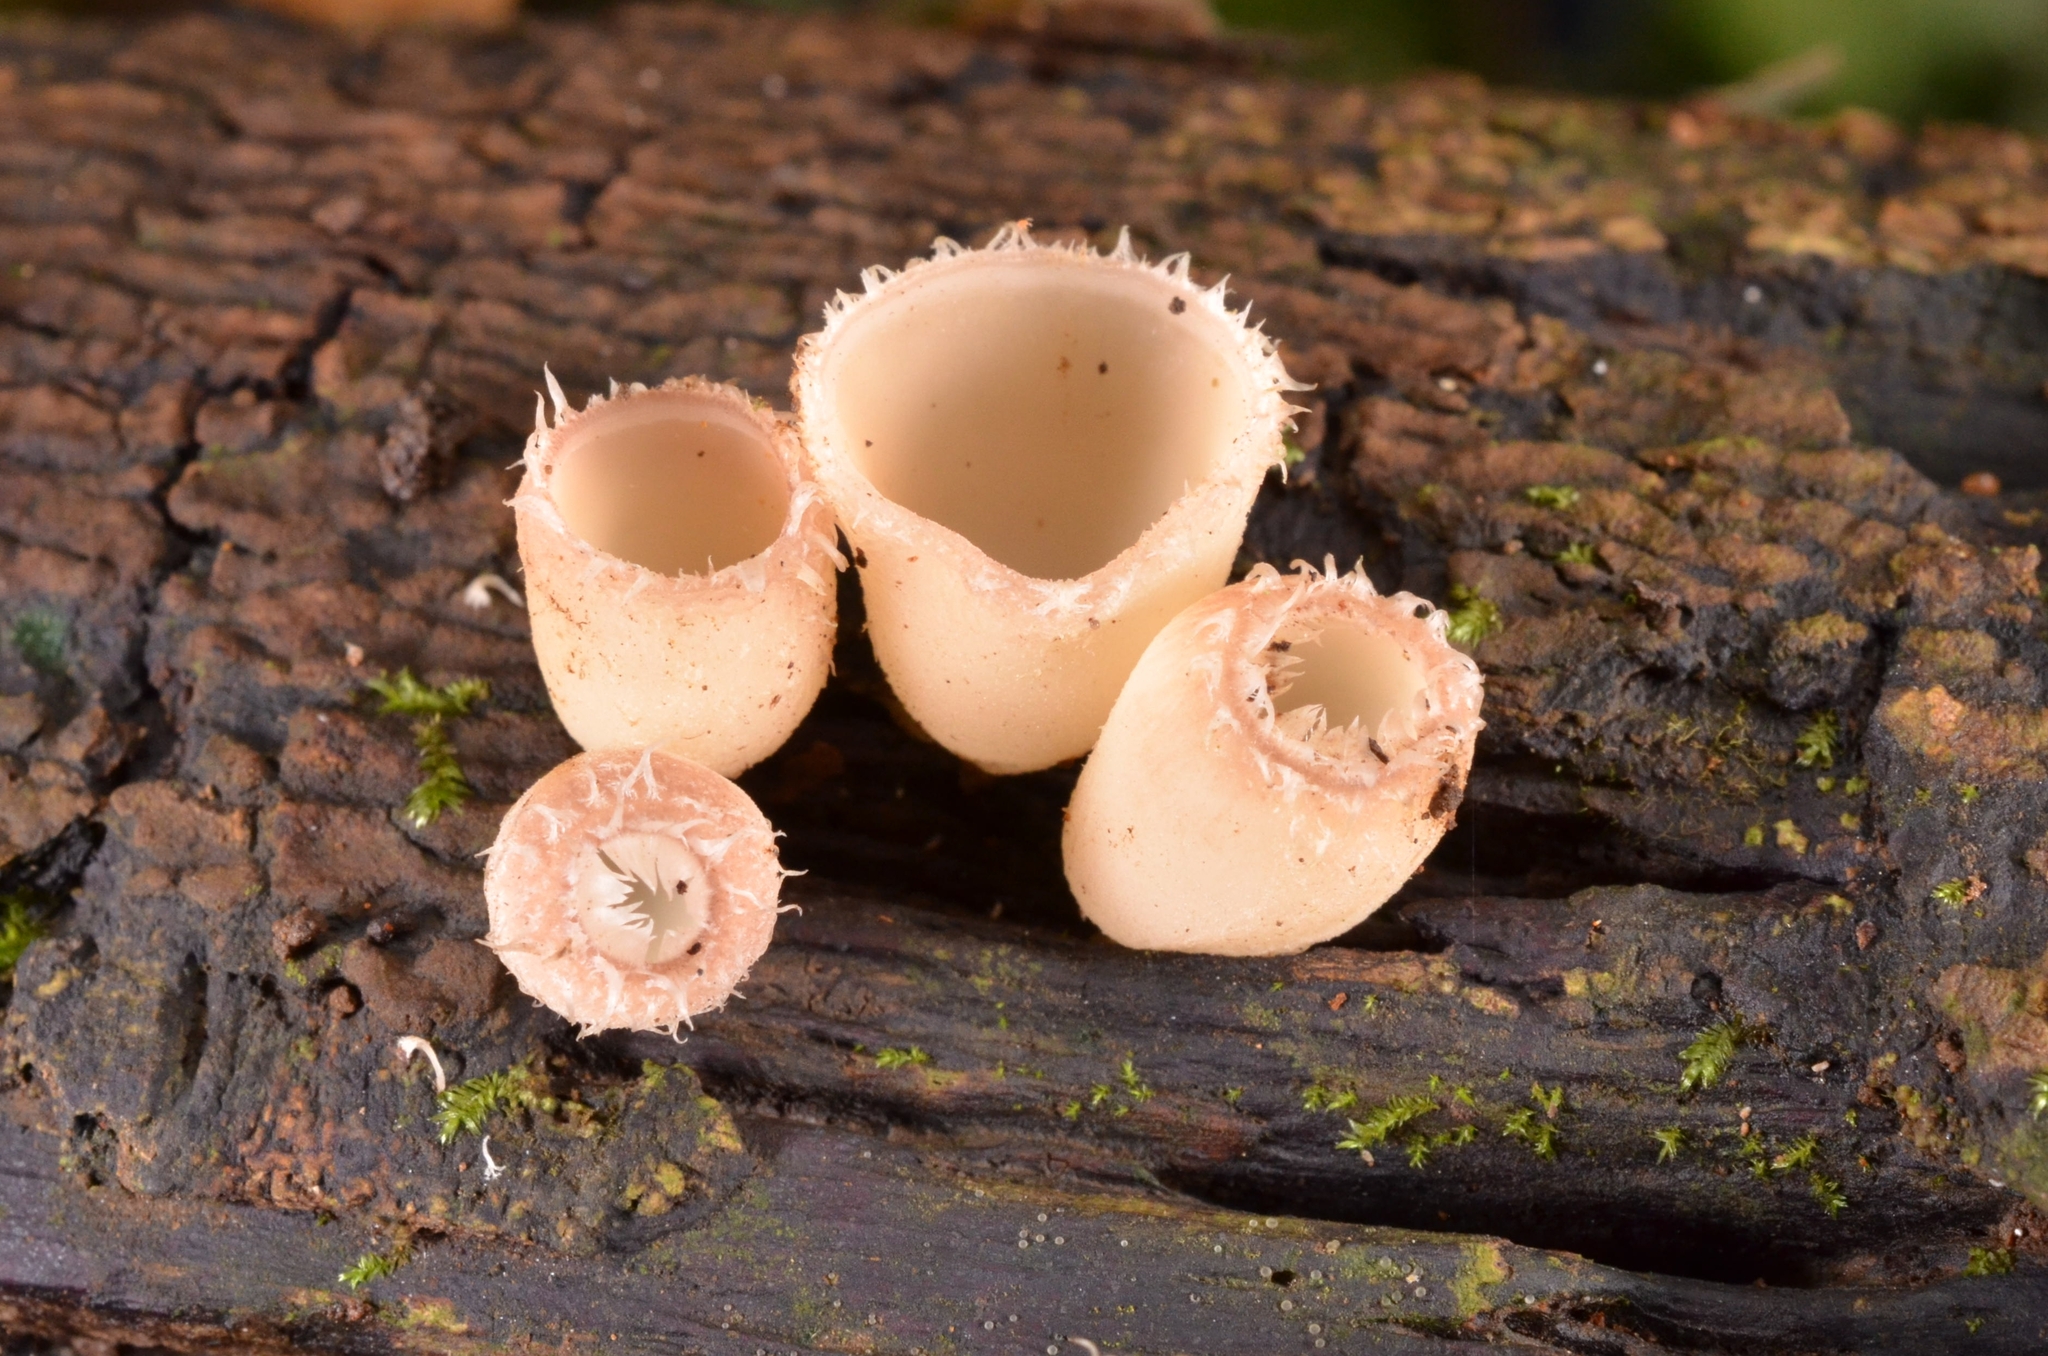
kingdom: Fungi
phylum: Ascomycota
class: Pezizomycetes
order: Pezizales
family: Sarcoscyphaceae
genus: Cookeina
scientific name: Cookeina insititia
